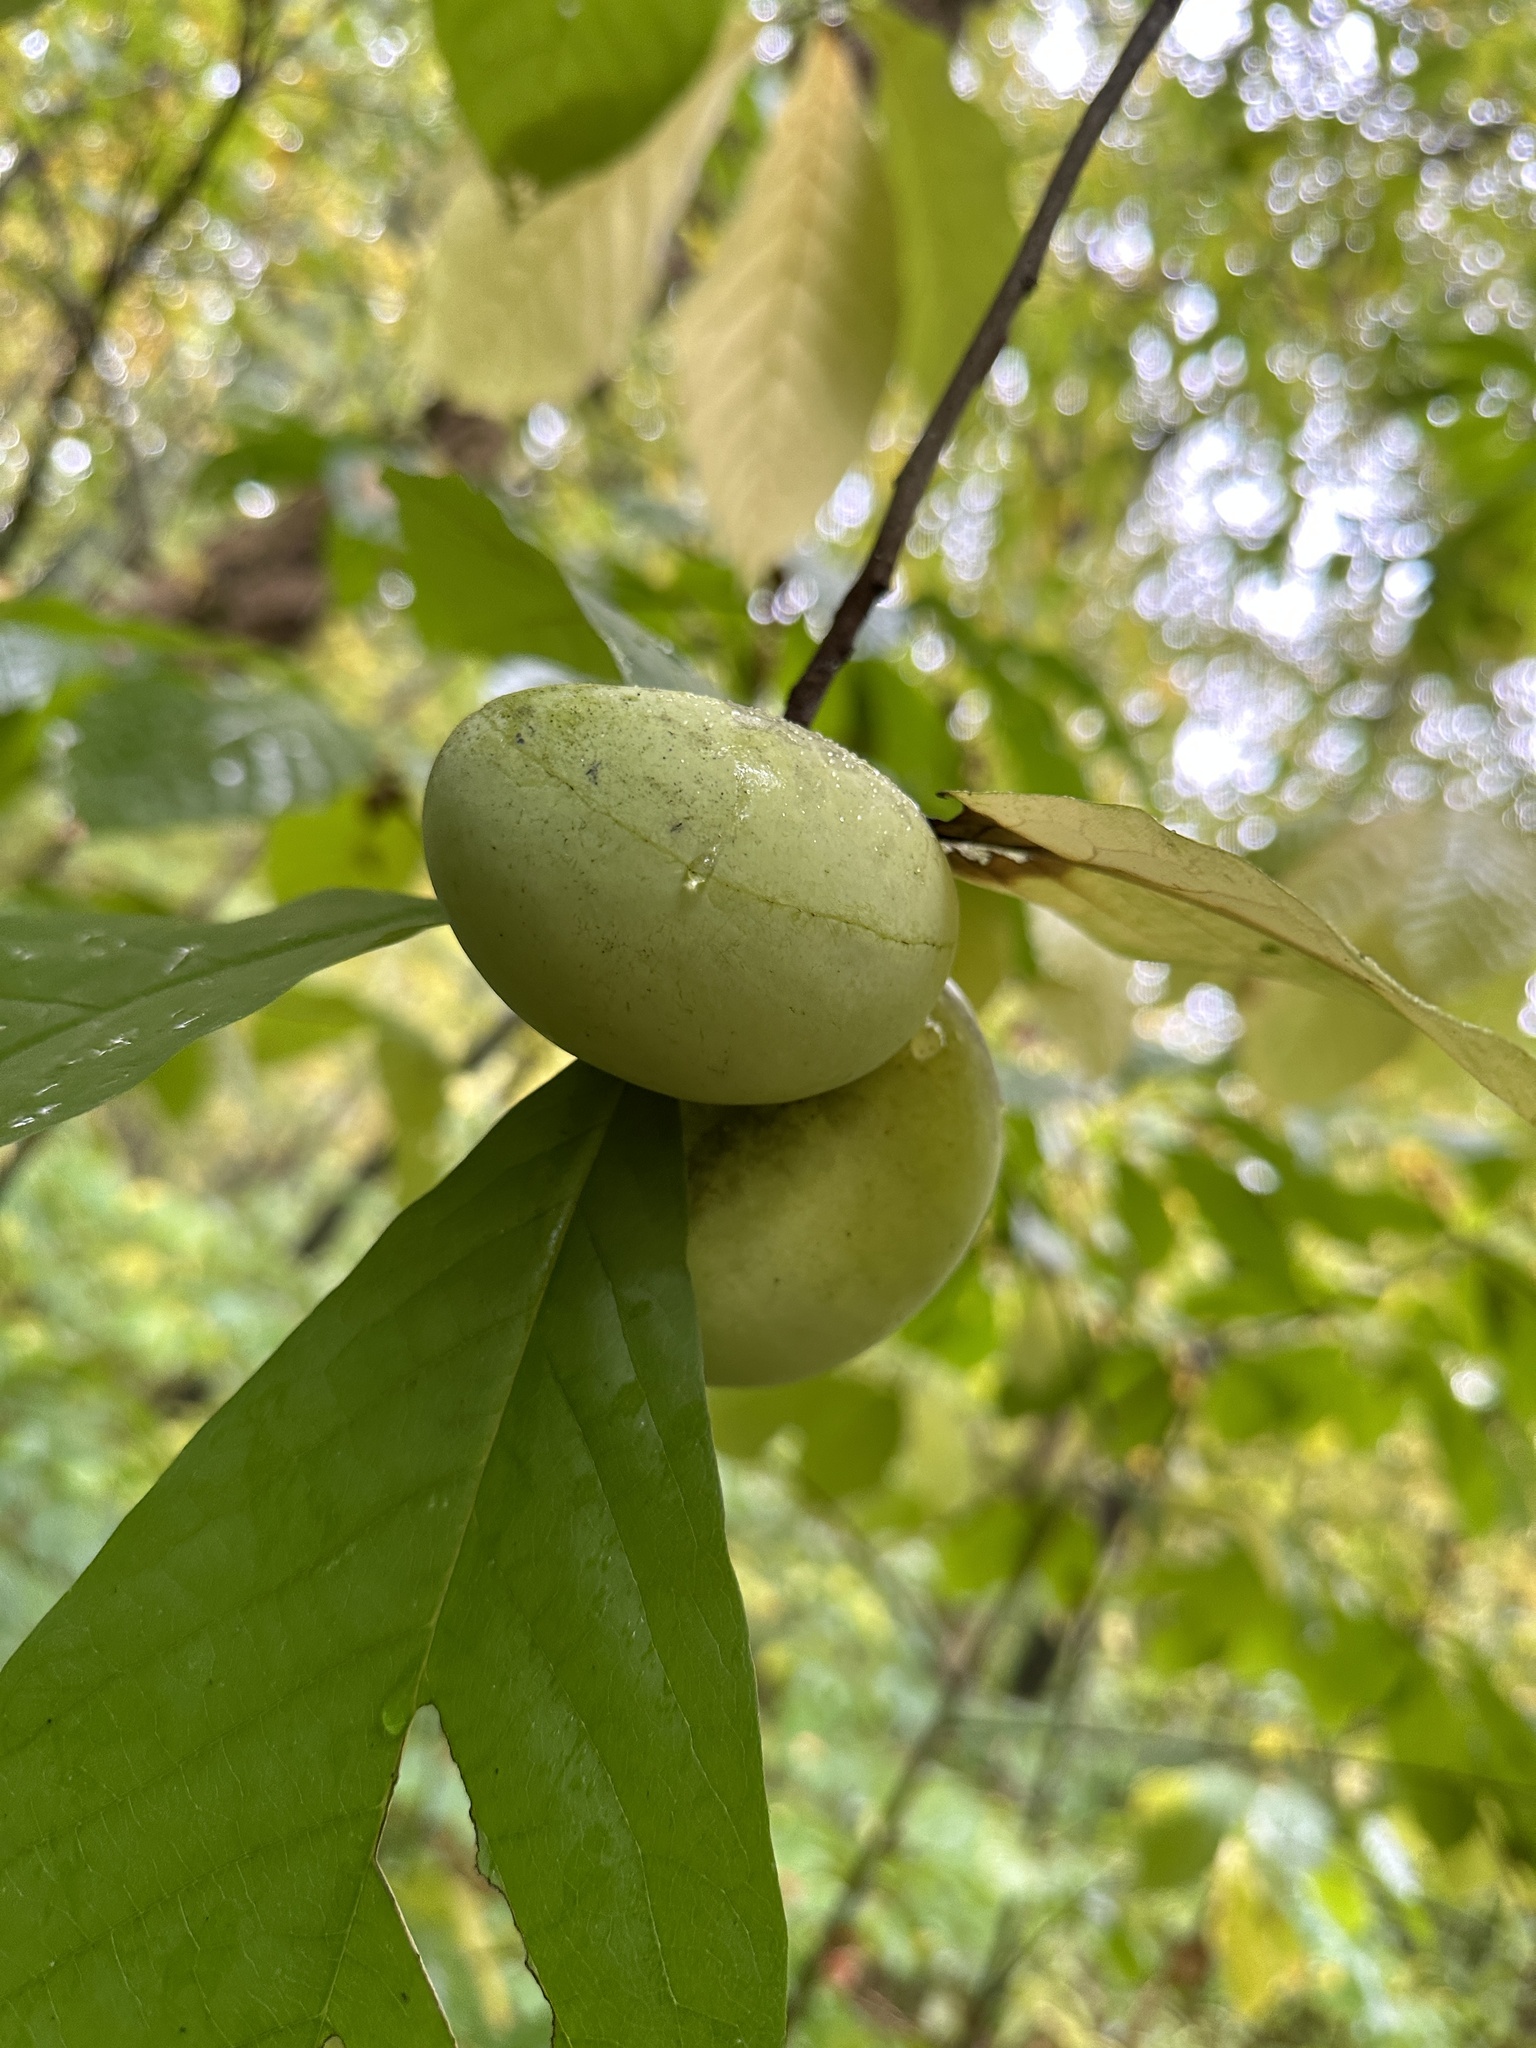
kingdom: Plantae
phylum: Tracheophyta
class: Magnoliopsida
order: Magnoliales
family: Annonaceae
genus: Asimina
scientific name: Asimina triloba
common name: Dog-banana
